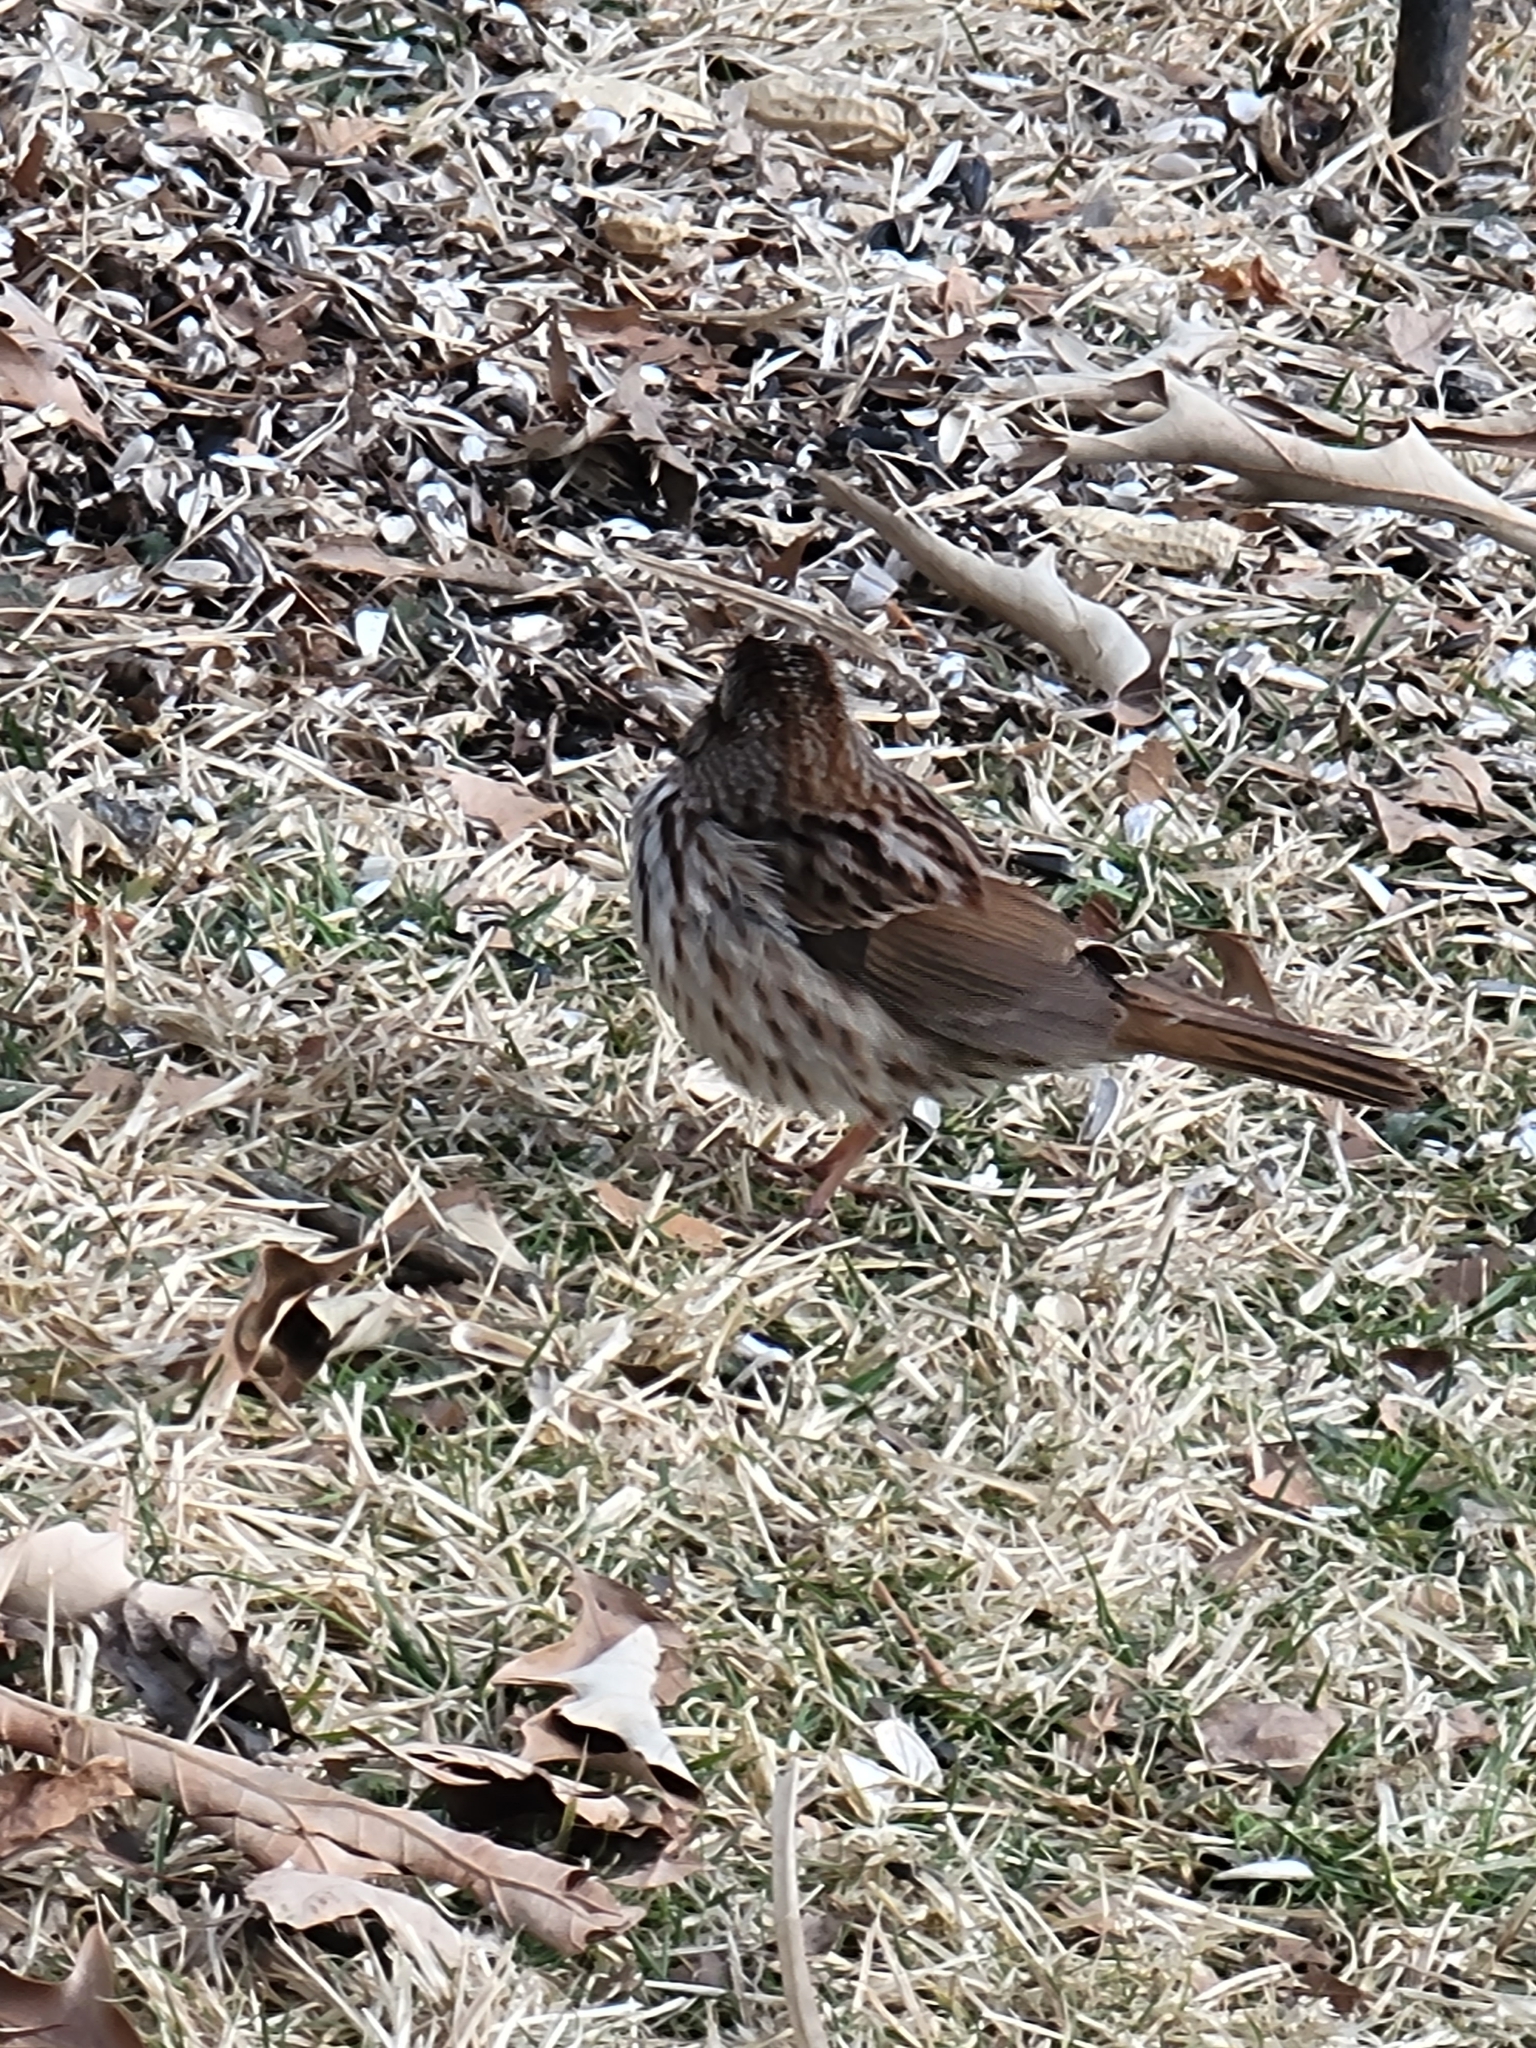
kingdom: Animalia
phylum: Chordata
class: Aves
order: Passeriformes
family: Passerellidae
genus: Melospiza
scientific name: Melospiza melodia
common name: Song sparrow
